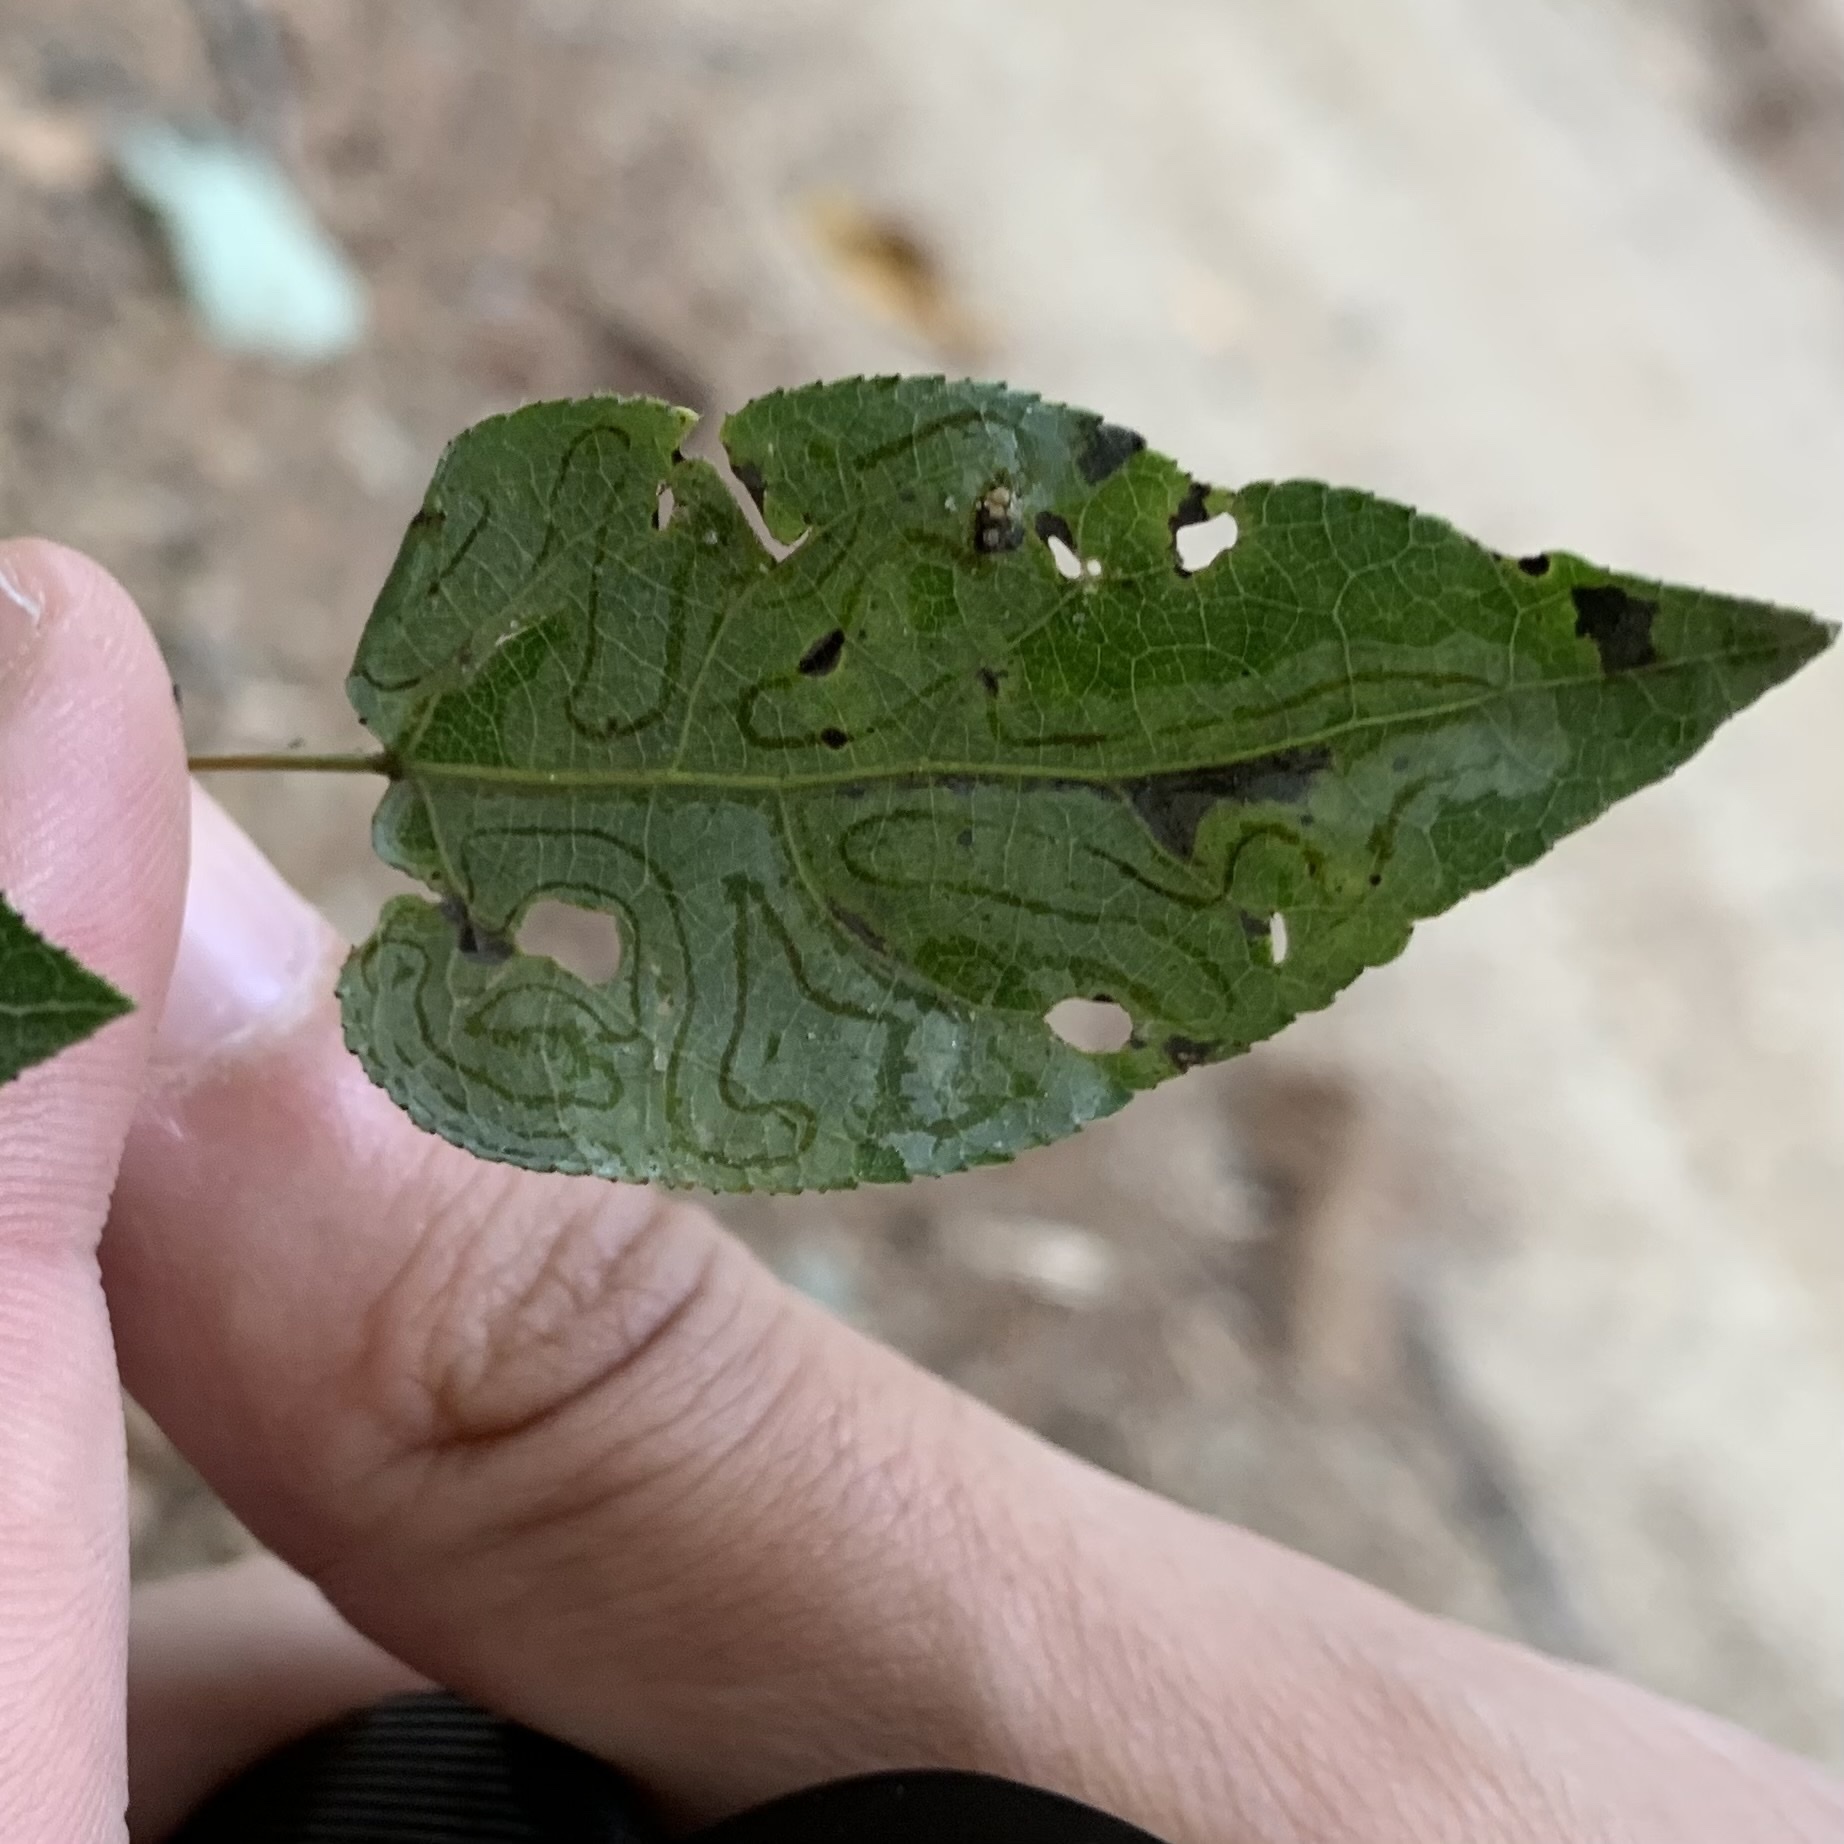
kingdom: Animalia
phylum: Arthropoda
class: Insecta
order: Lepidoptera
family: Gracillariidae
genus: Phyllocnistis
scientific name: Phyllocnistis populiella
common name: Aspen serpentine leafminer moth
